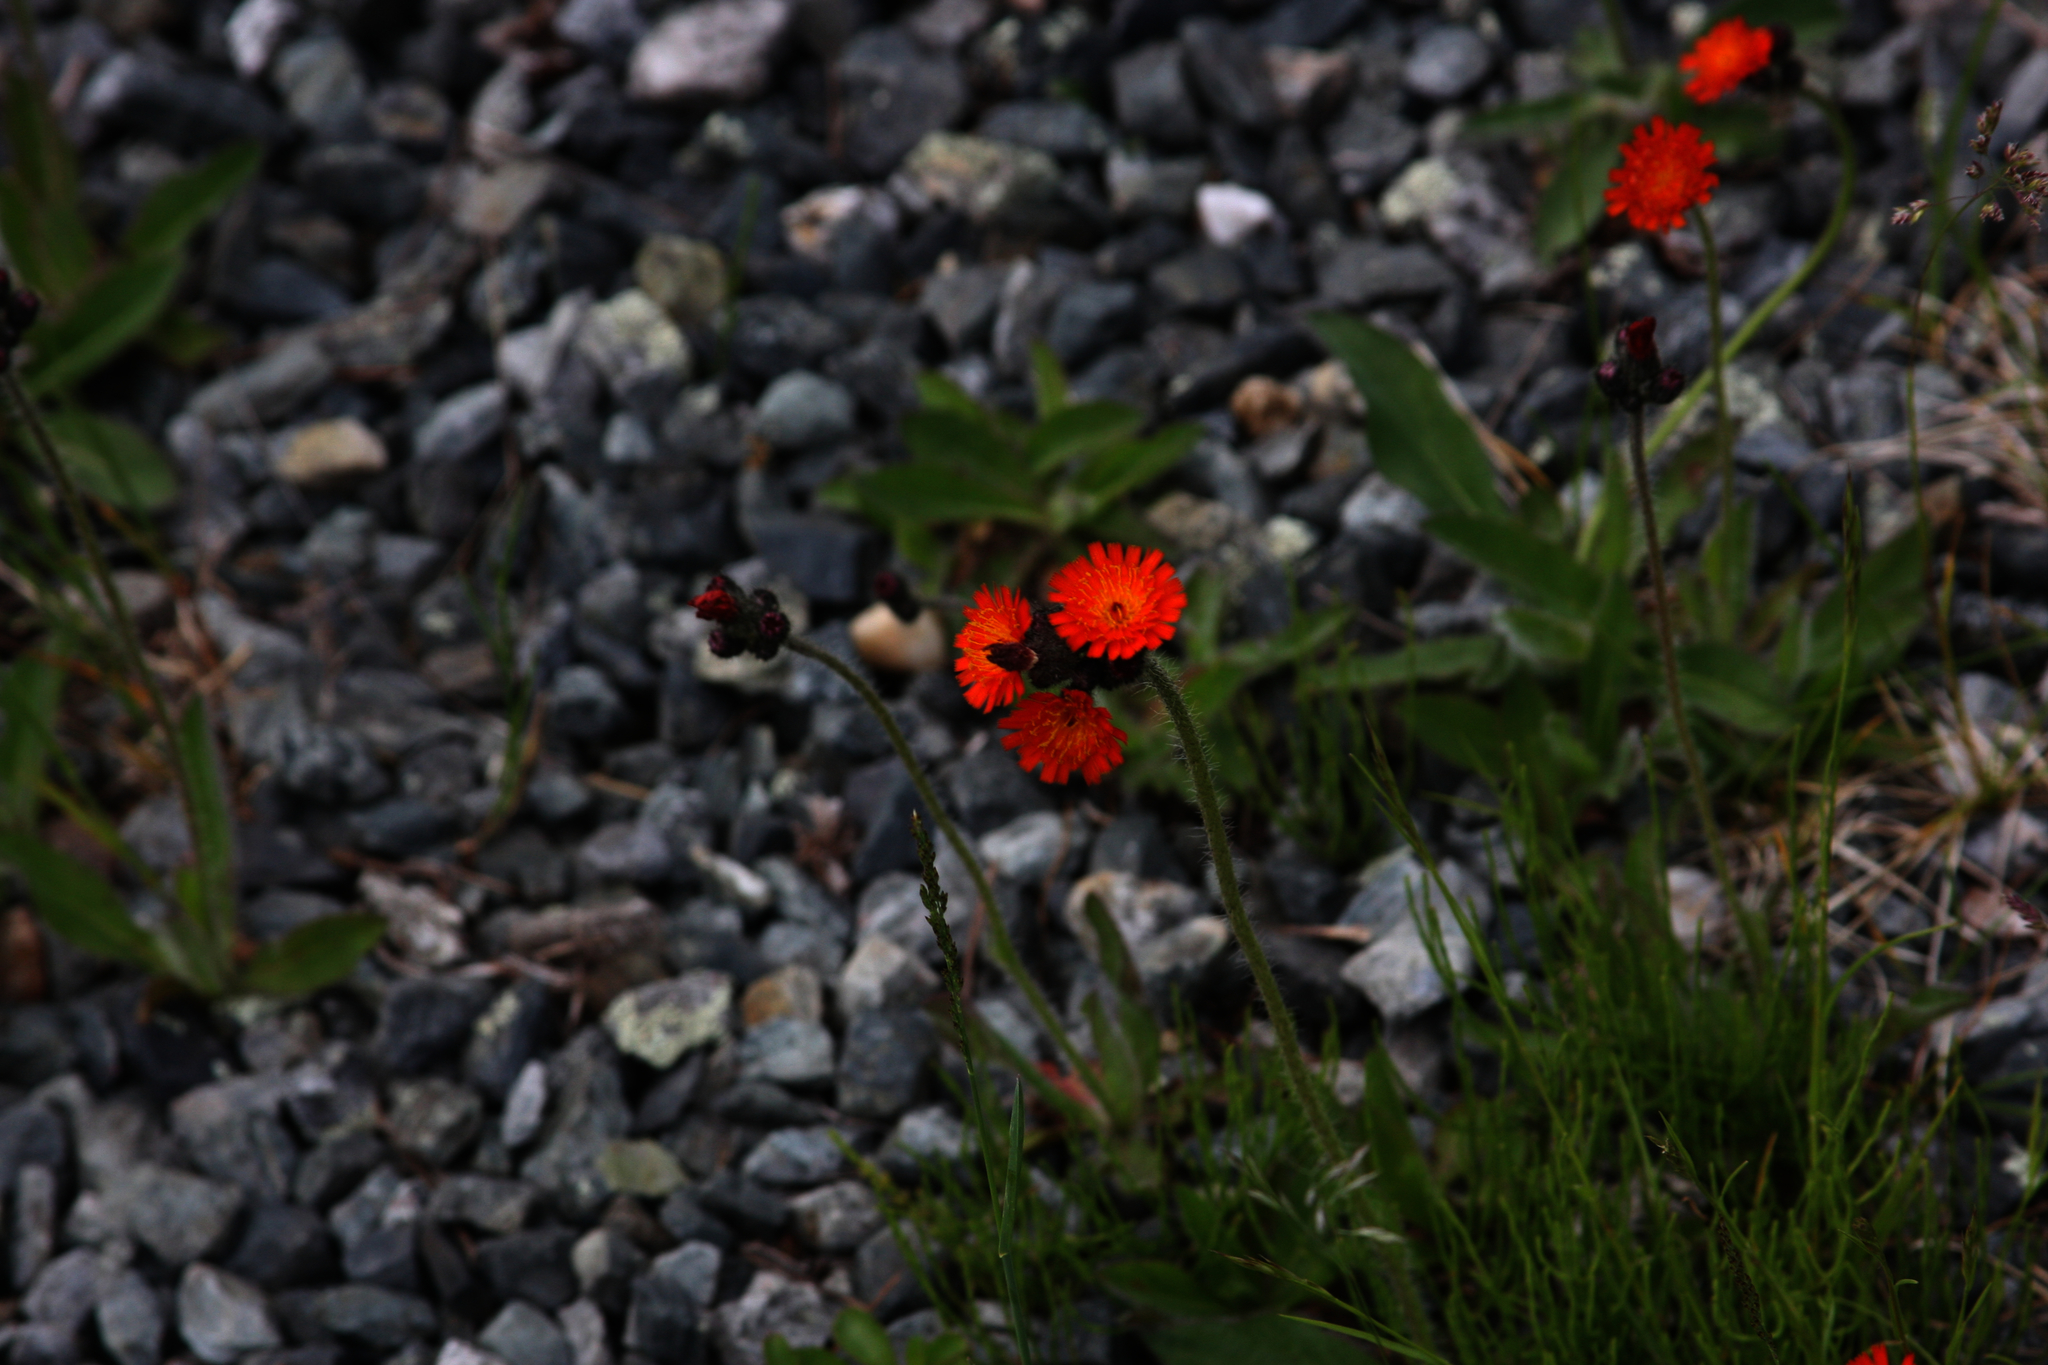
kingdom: Plantae
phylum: Tracheophyta
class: Magnoliopsida
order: Asterales
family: Asteraceae
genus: Pilosella
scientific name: Pilosella aurantiaca
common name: Fox-and-cubs
